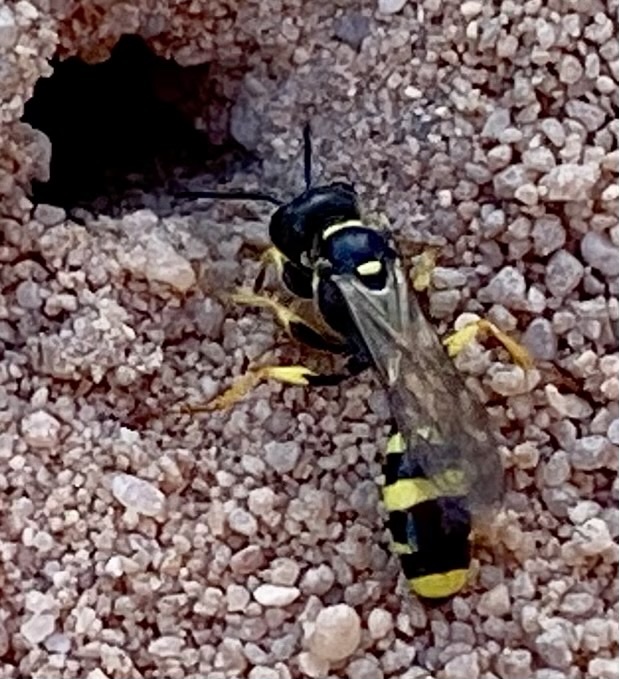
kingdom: Animalia
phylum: Arthropoda
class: Insecta
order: Hymenoptera
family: Crabronidae
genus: Mellinus
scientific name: Mellinus arvensis
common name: Field digger wasp
